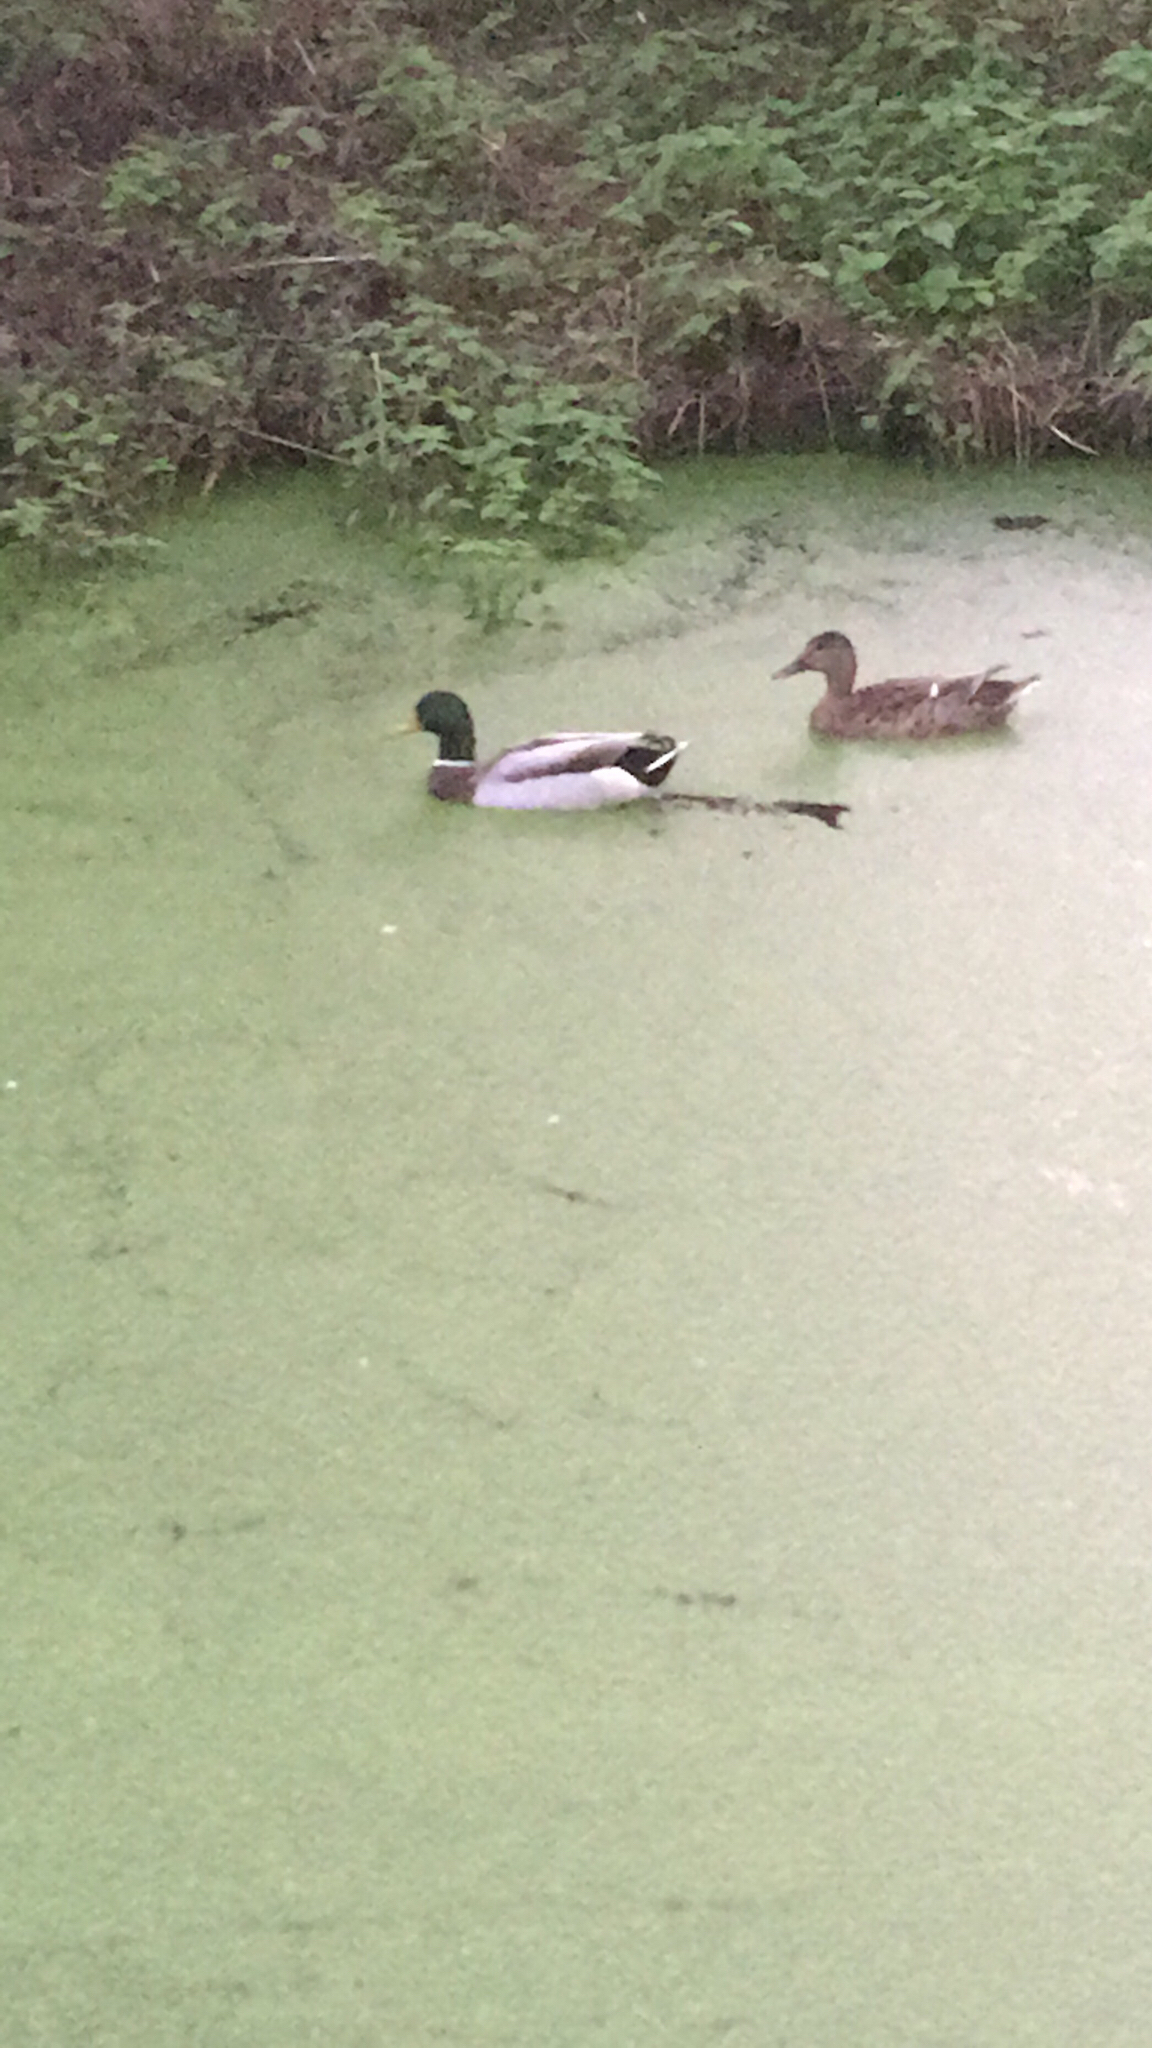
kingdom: Animalia
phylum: Chordata
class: Aves
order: Anseriformes
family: Anatidae
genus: Anas
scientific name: Anas platyrhynchos
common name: Mallard
